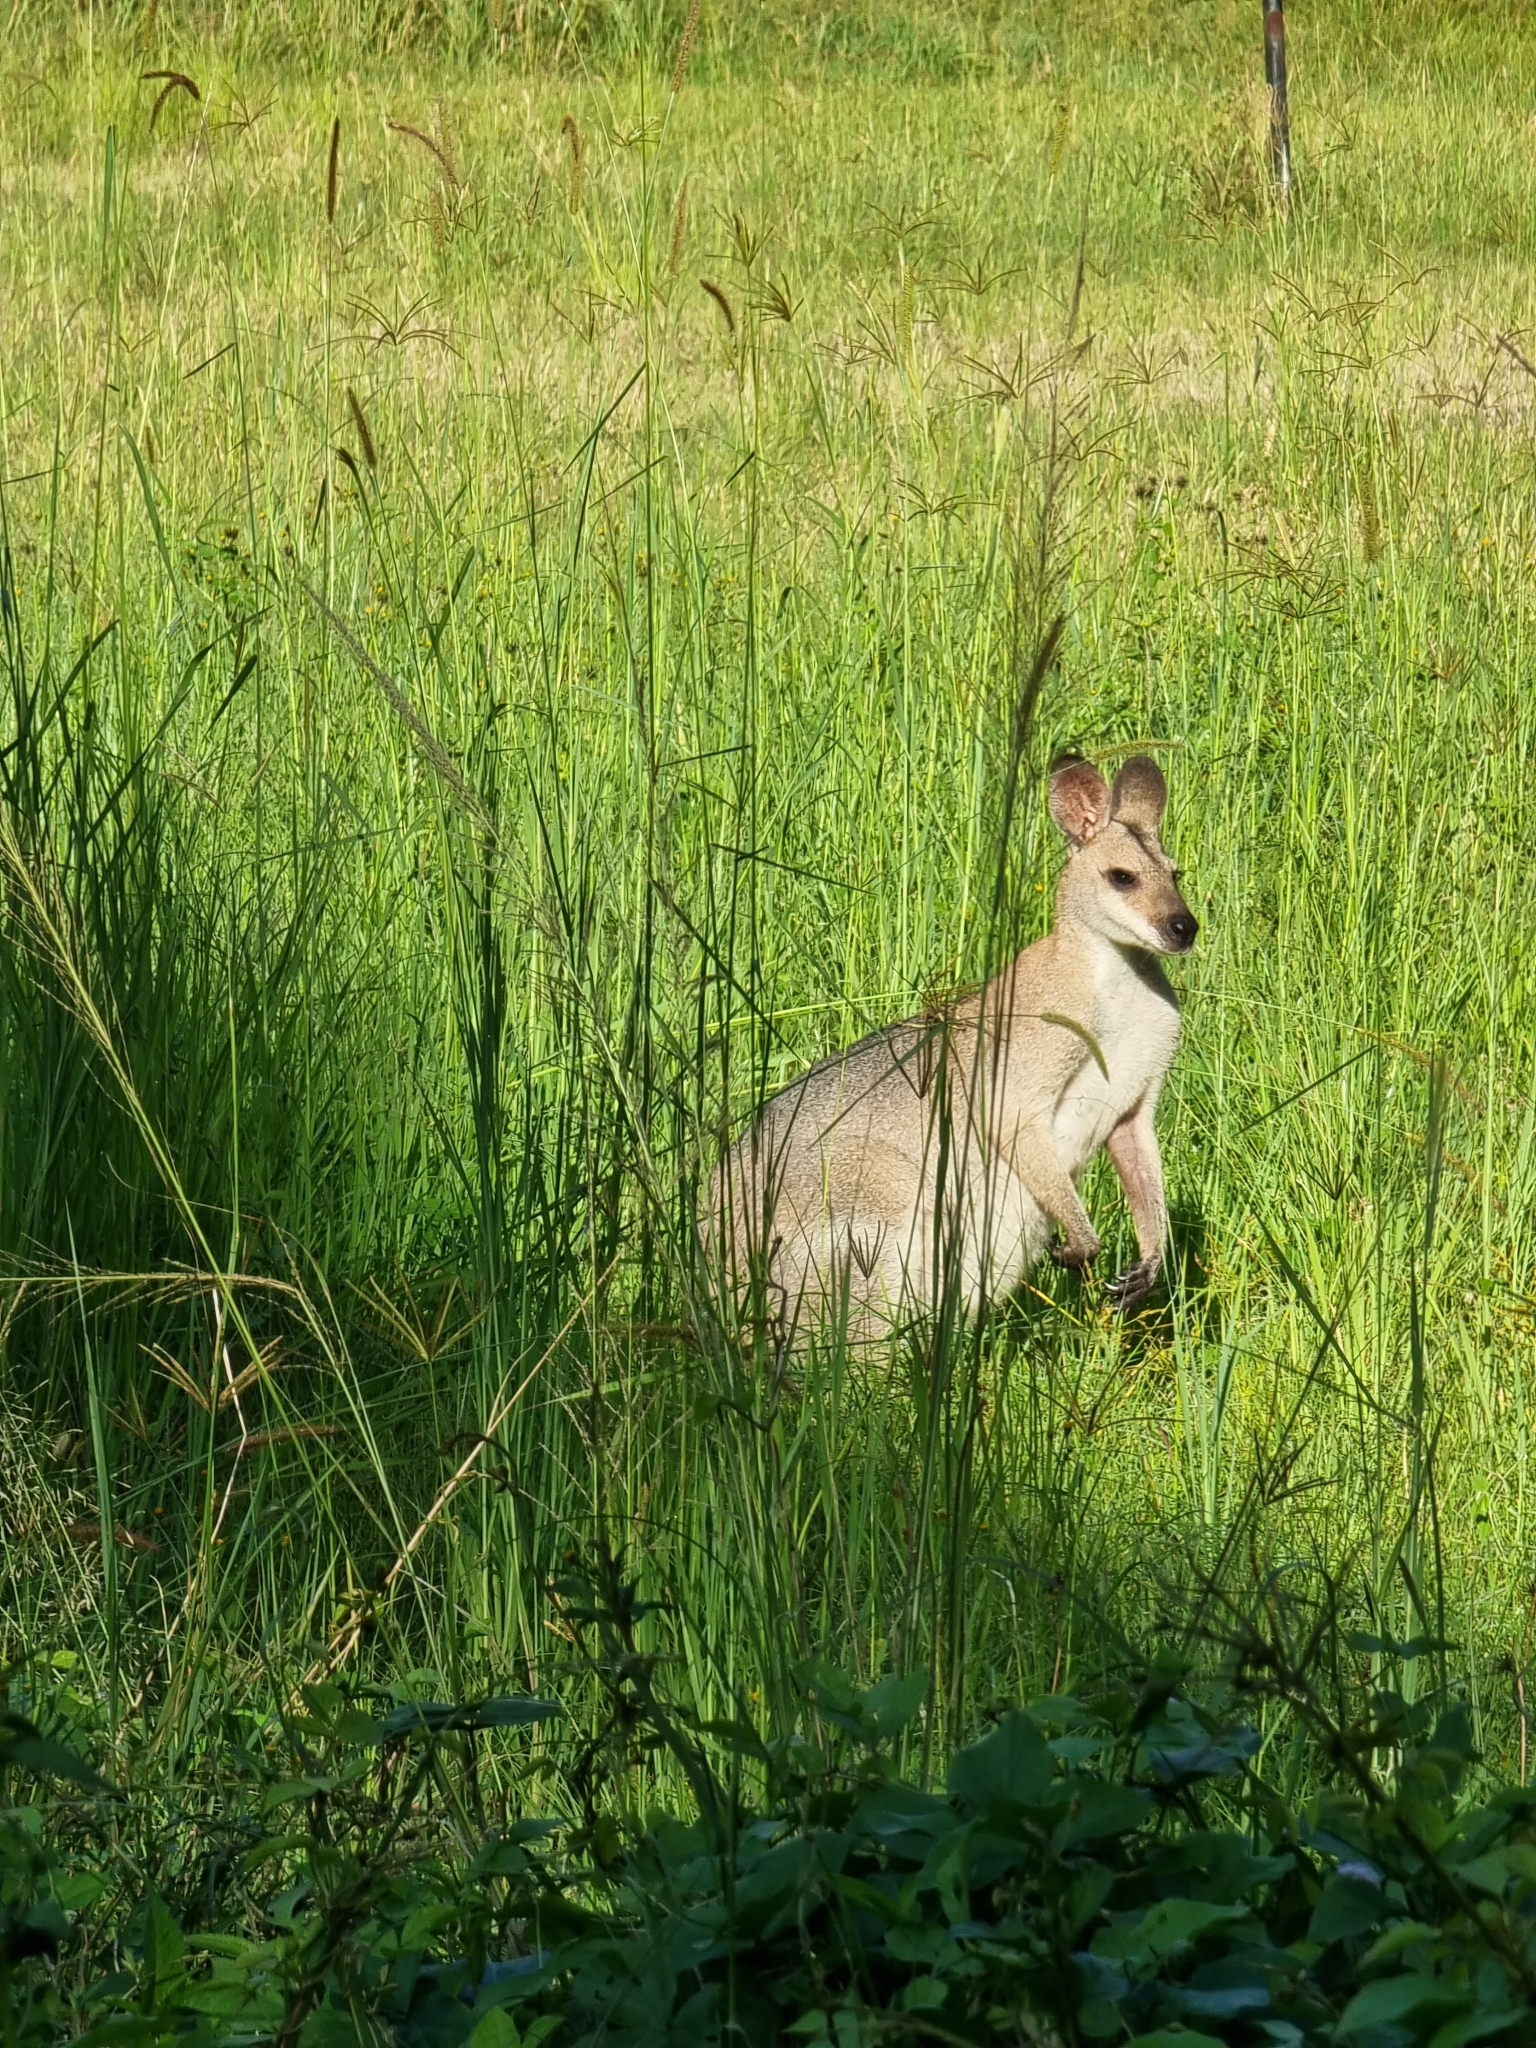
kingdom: Animalia
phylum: Chordata
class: Mammalia
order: Diprotodontia
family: Macropodidae
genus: Notamacropus
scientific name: Notamacropus rufogriseus
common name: Red-necked wallaby
